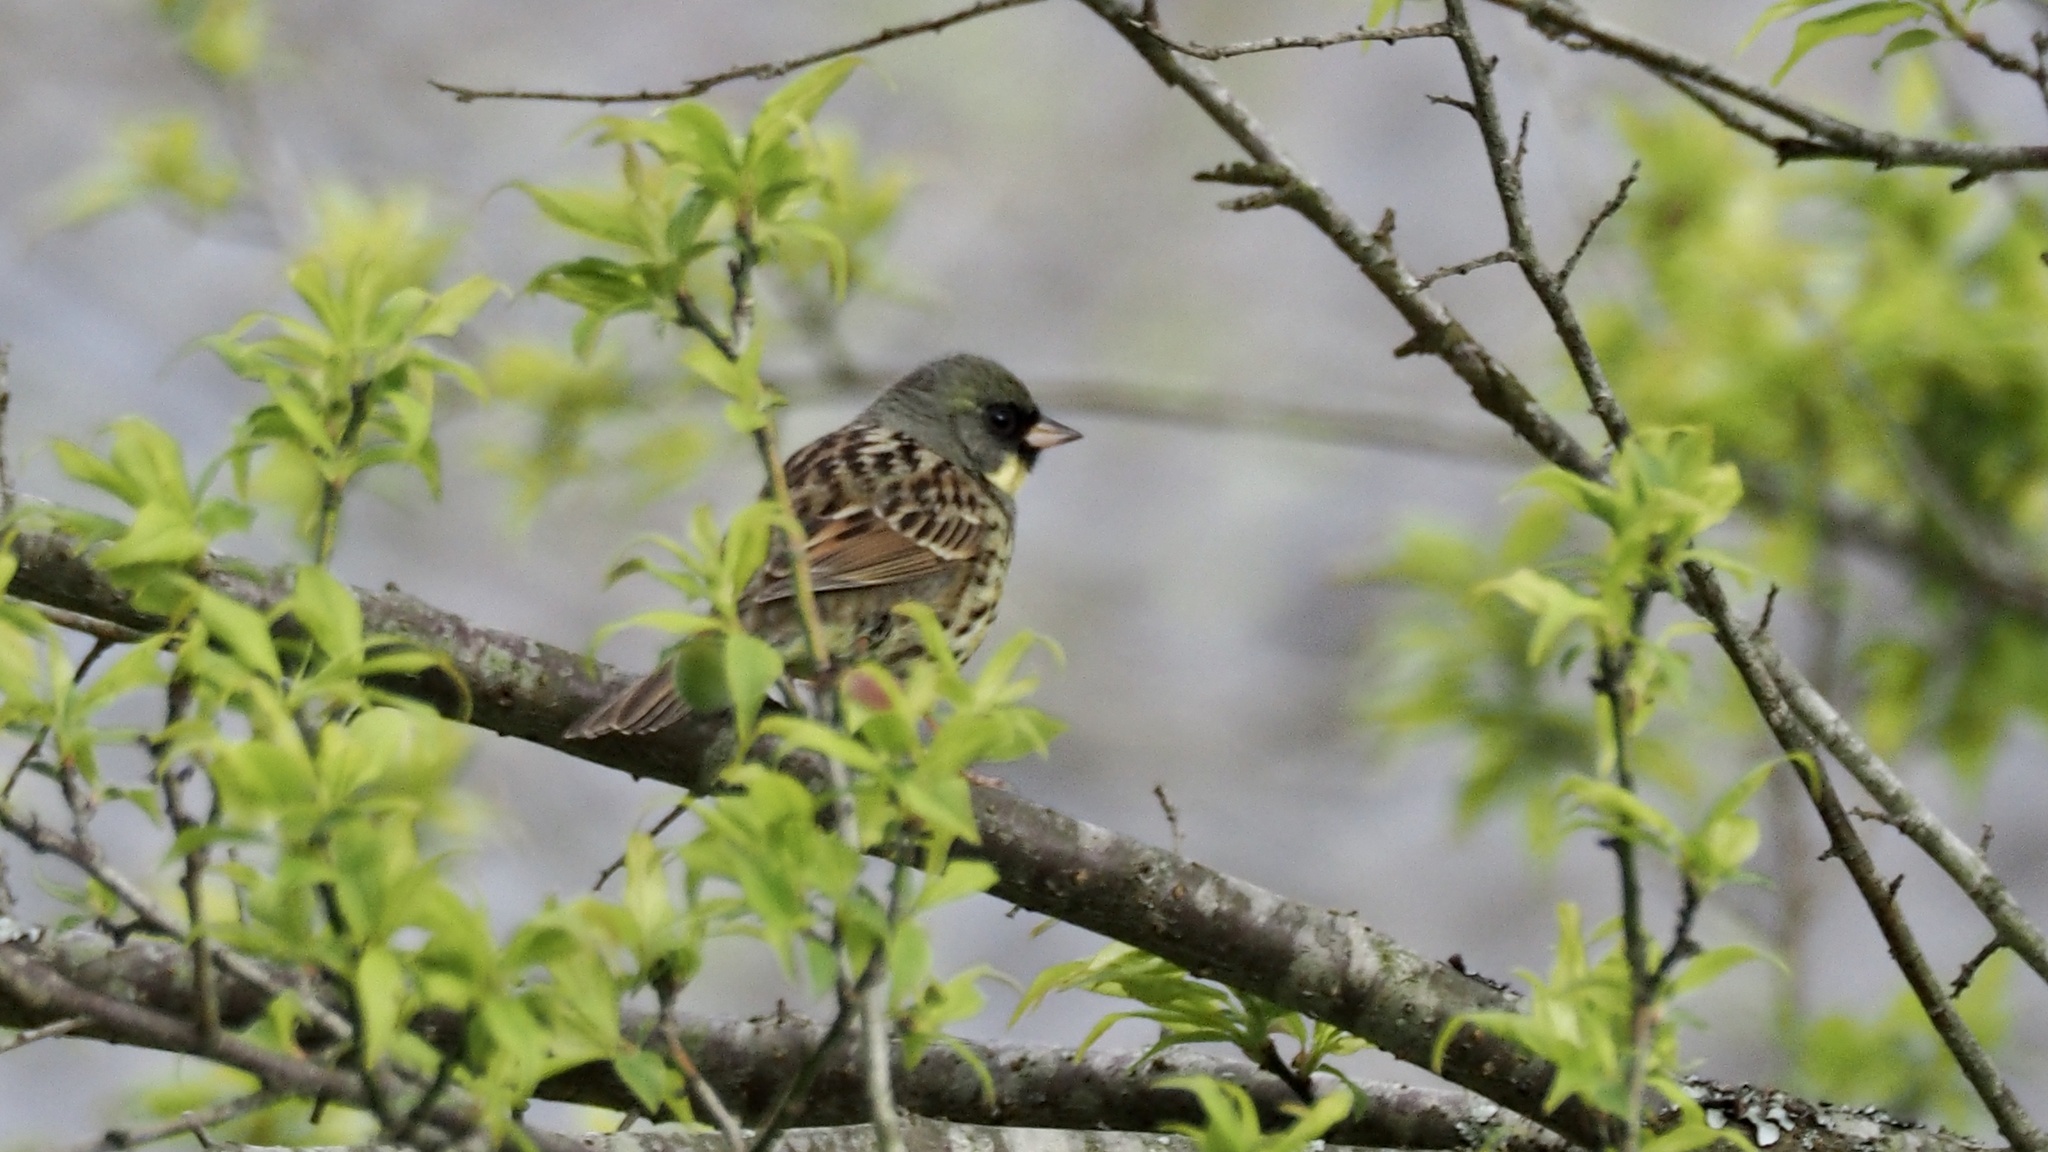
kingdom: Animalia
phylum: Chordata
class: Aves
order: Passeriformes
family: Emberizidae
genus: Emberiza
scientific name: Emberiza personata
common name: Masked bunting
